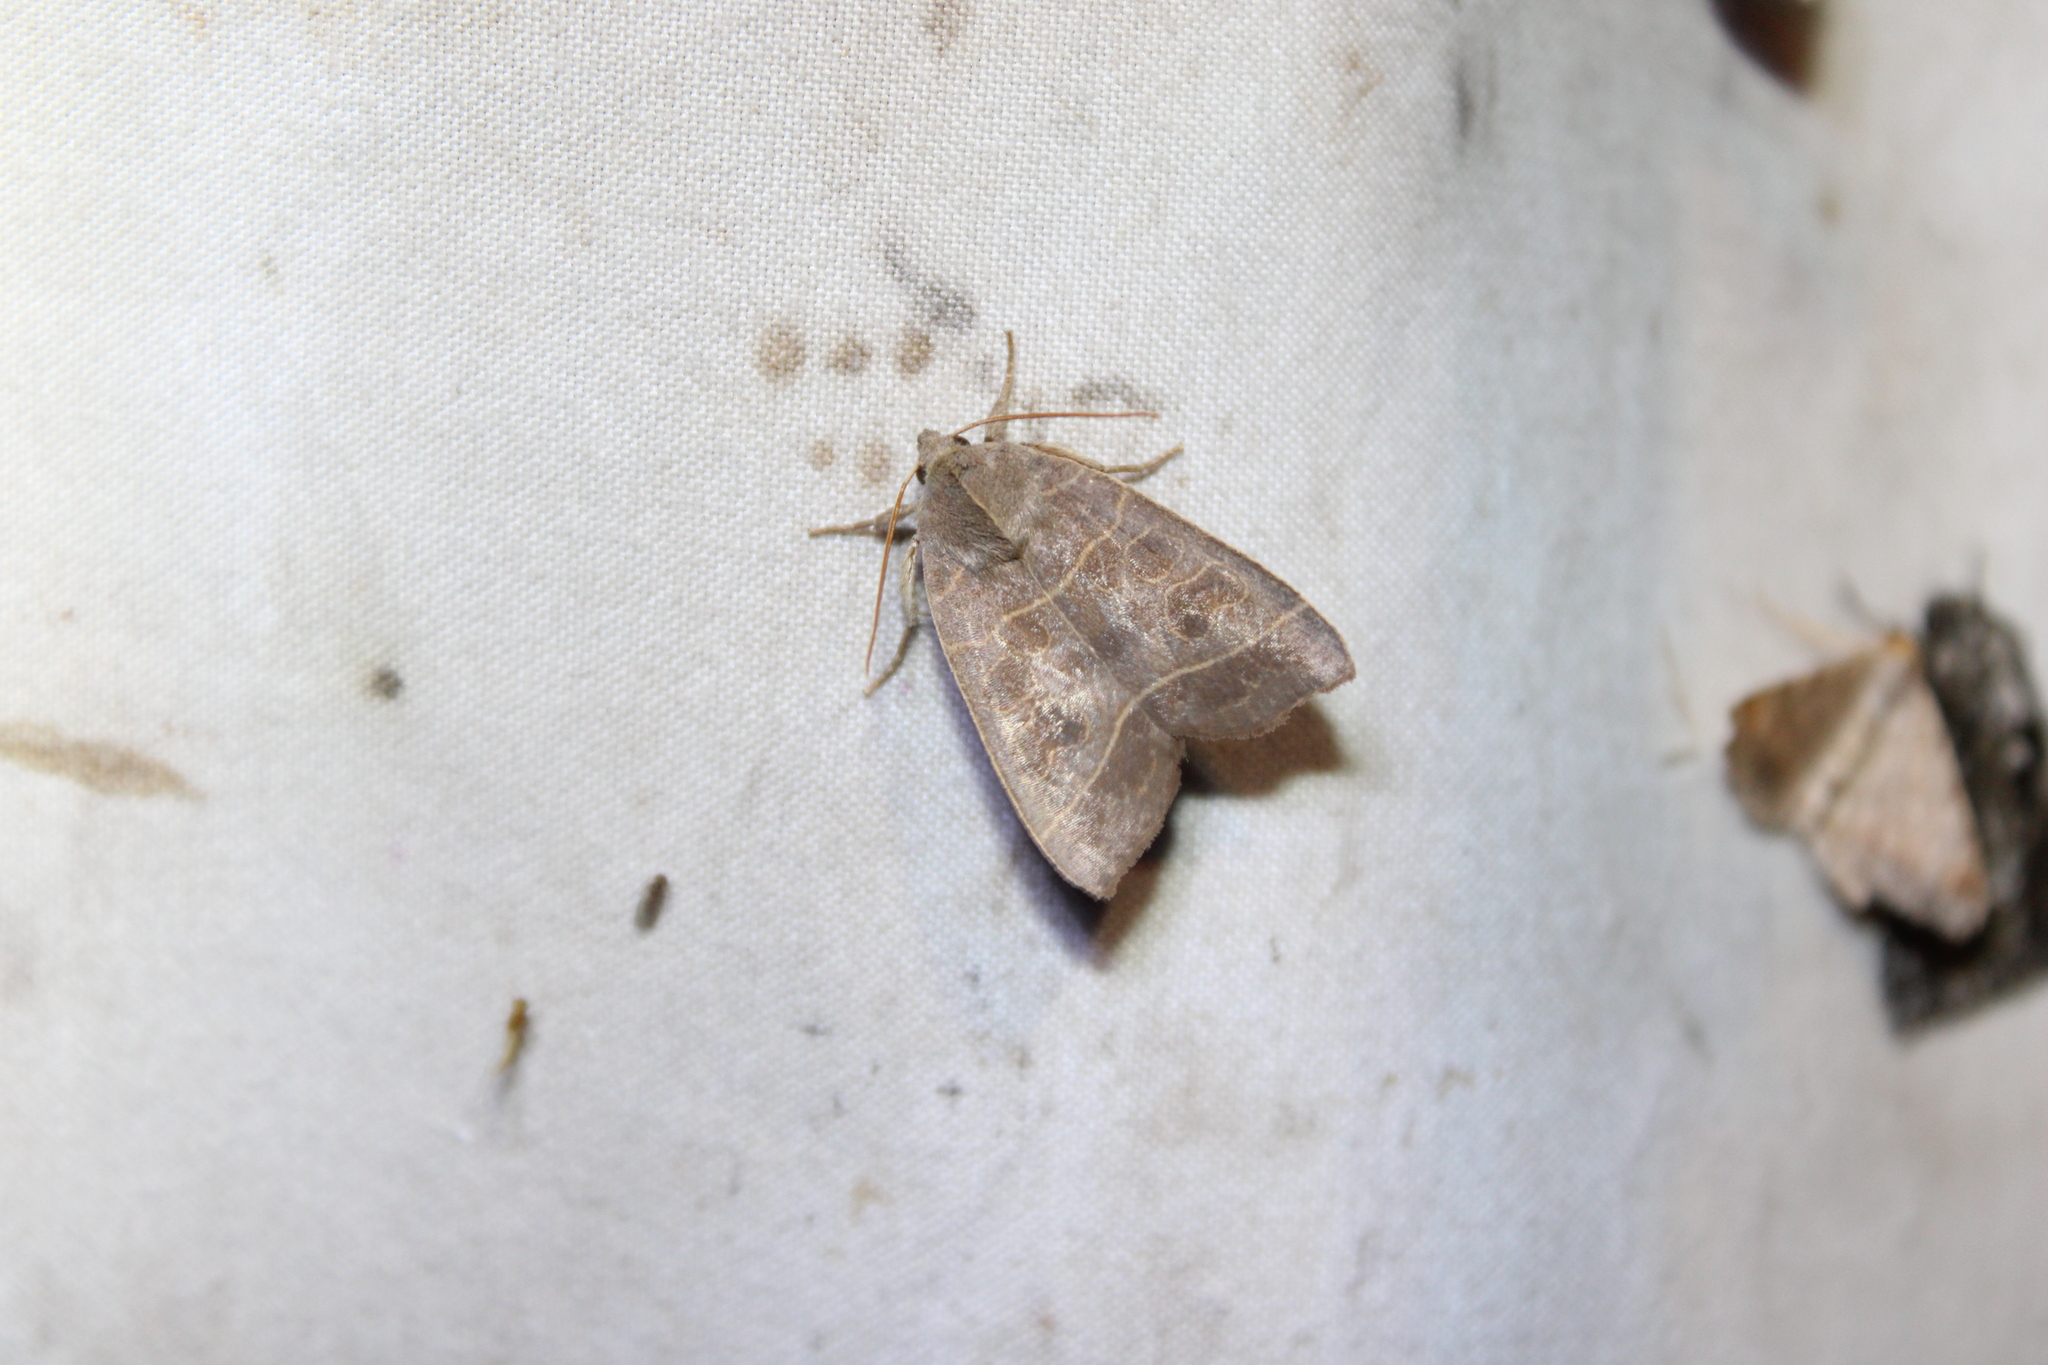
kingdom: Animalia
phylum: Arthropoda
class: Insecta
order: Lepidoptera
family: Noctuidae
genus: Ipimorpha
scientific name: Ipimorpha pleonectusa
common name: Even-lined sallow
